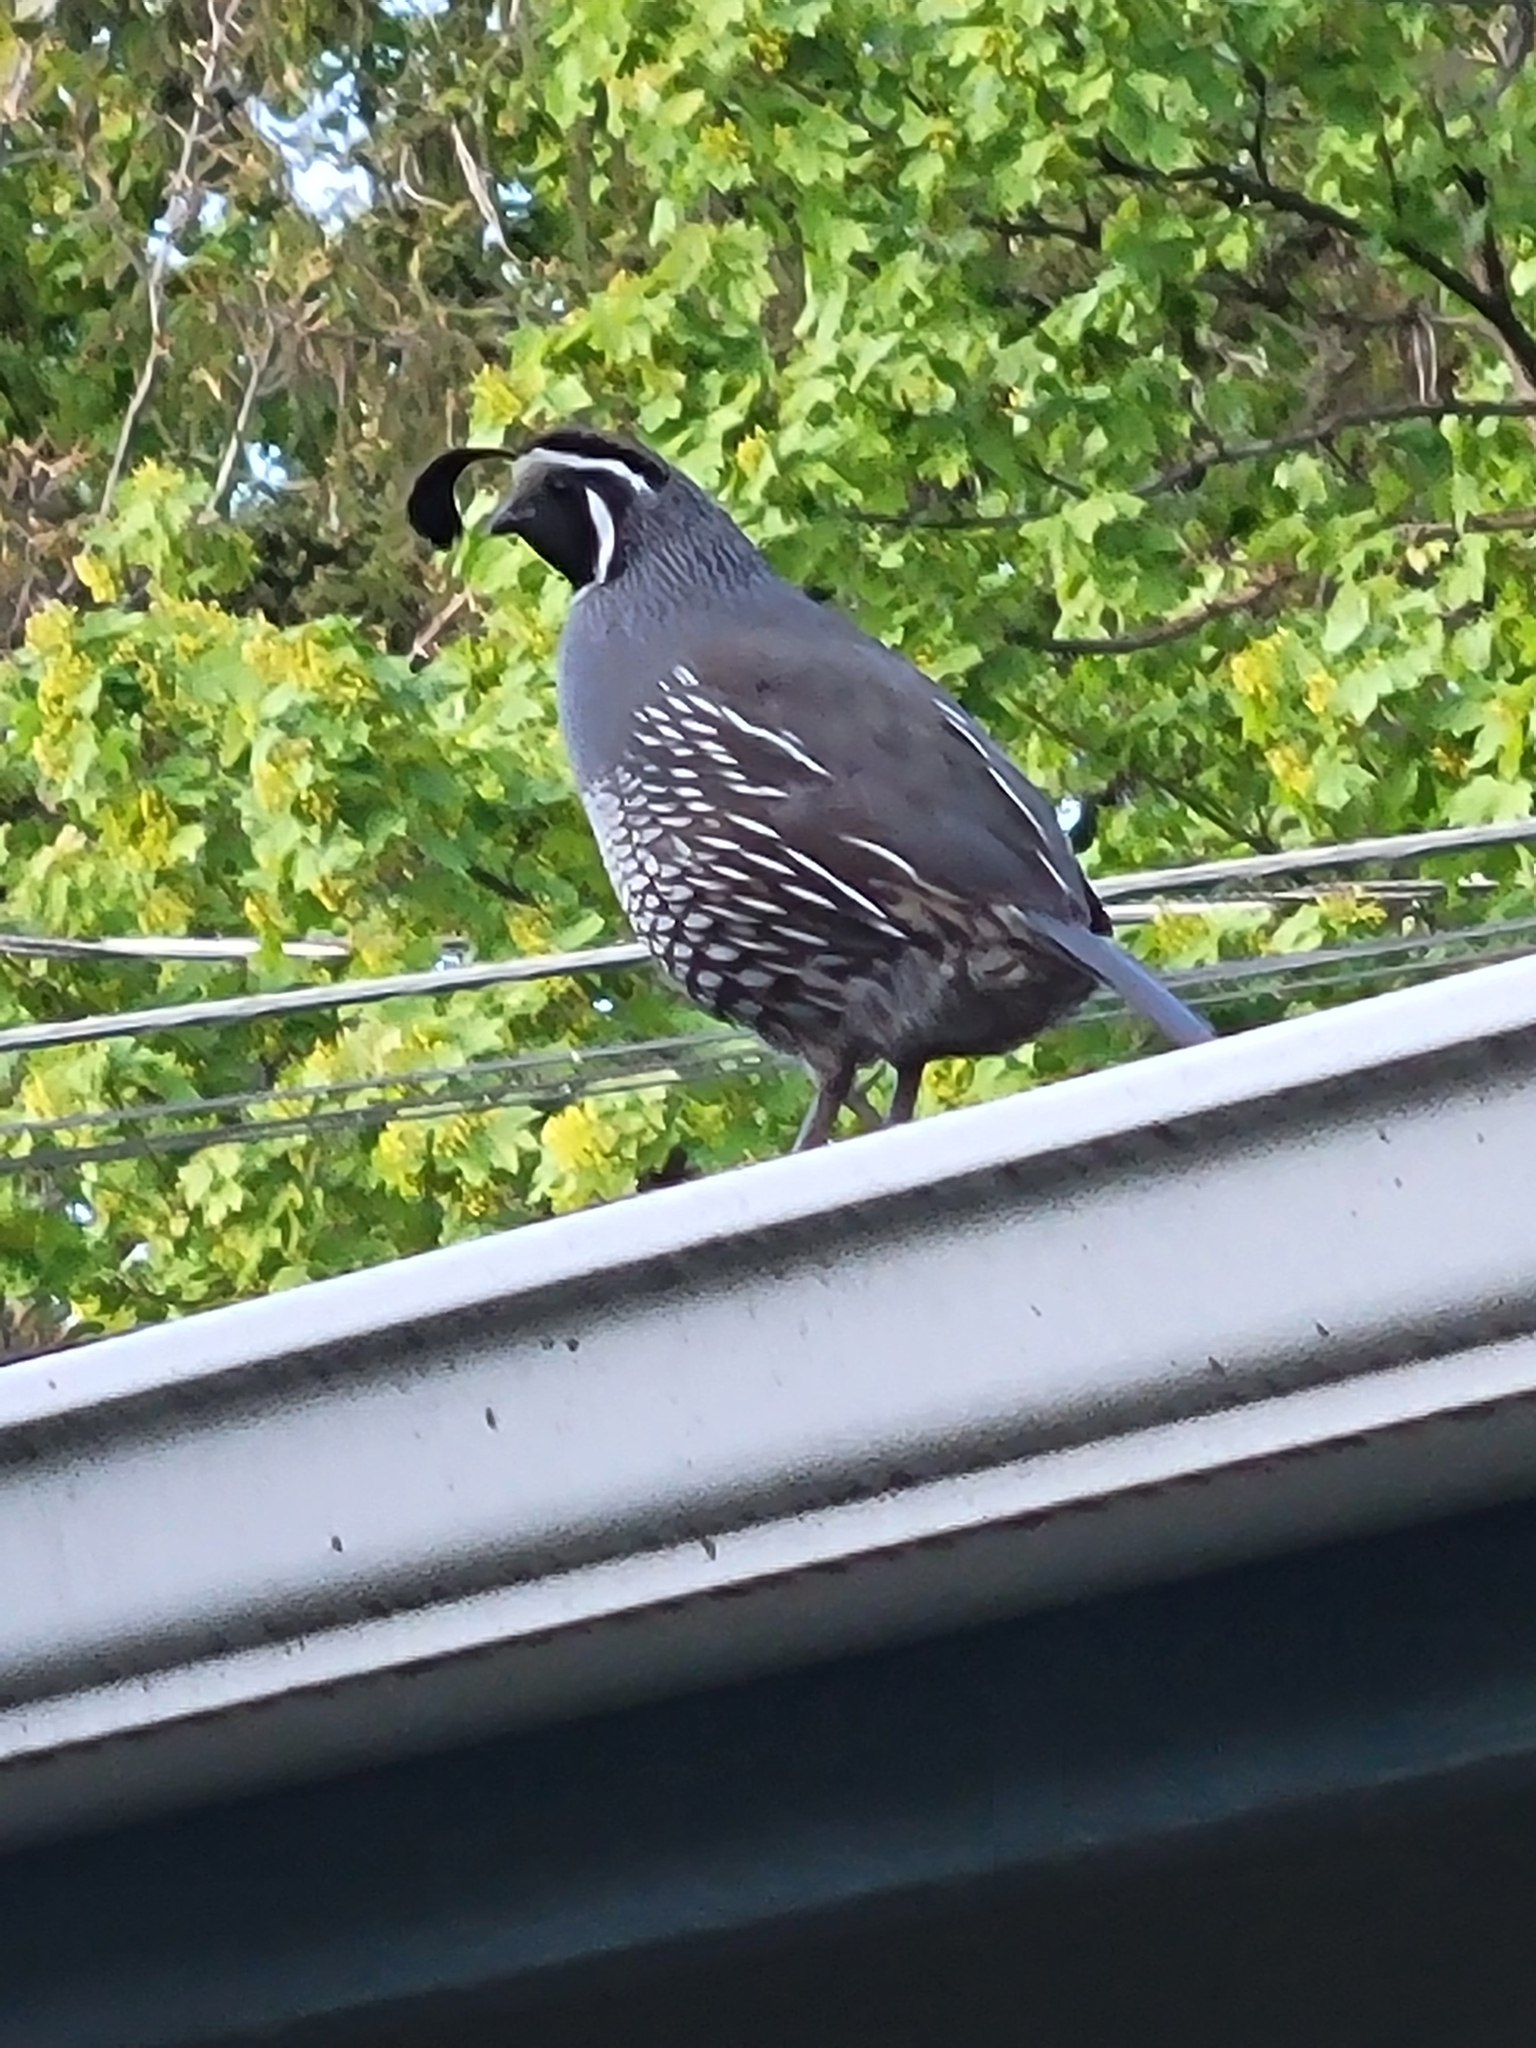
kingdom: Animalia
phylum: Chordata
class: Aves
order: Galliformes
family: Odontophoridae
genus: Callipepla
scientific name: Callipepla californica
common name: California quail
